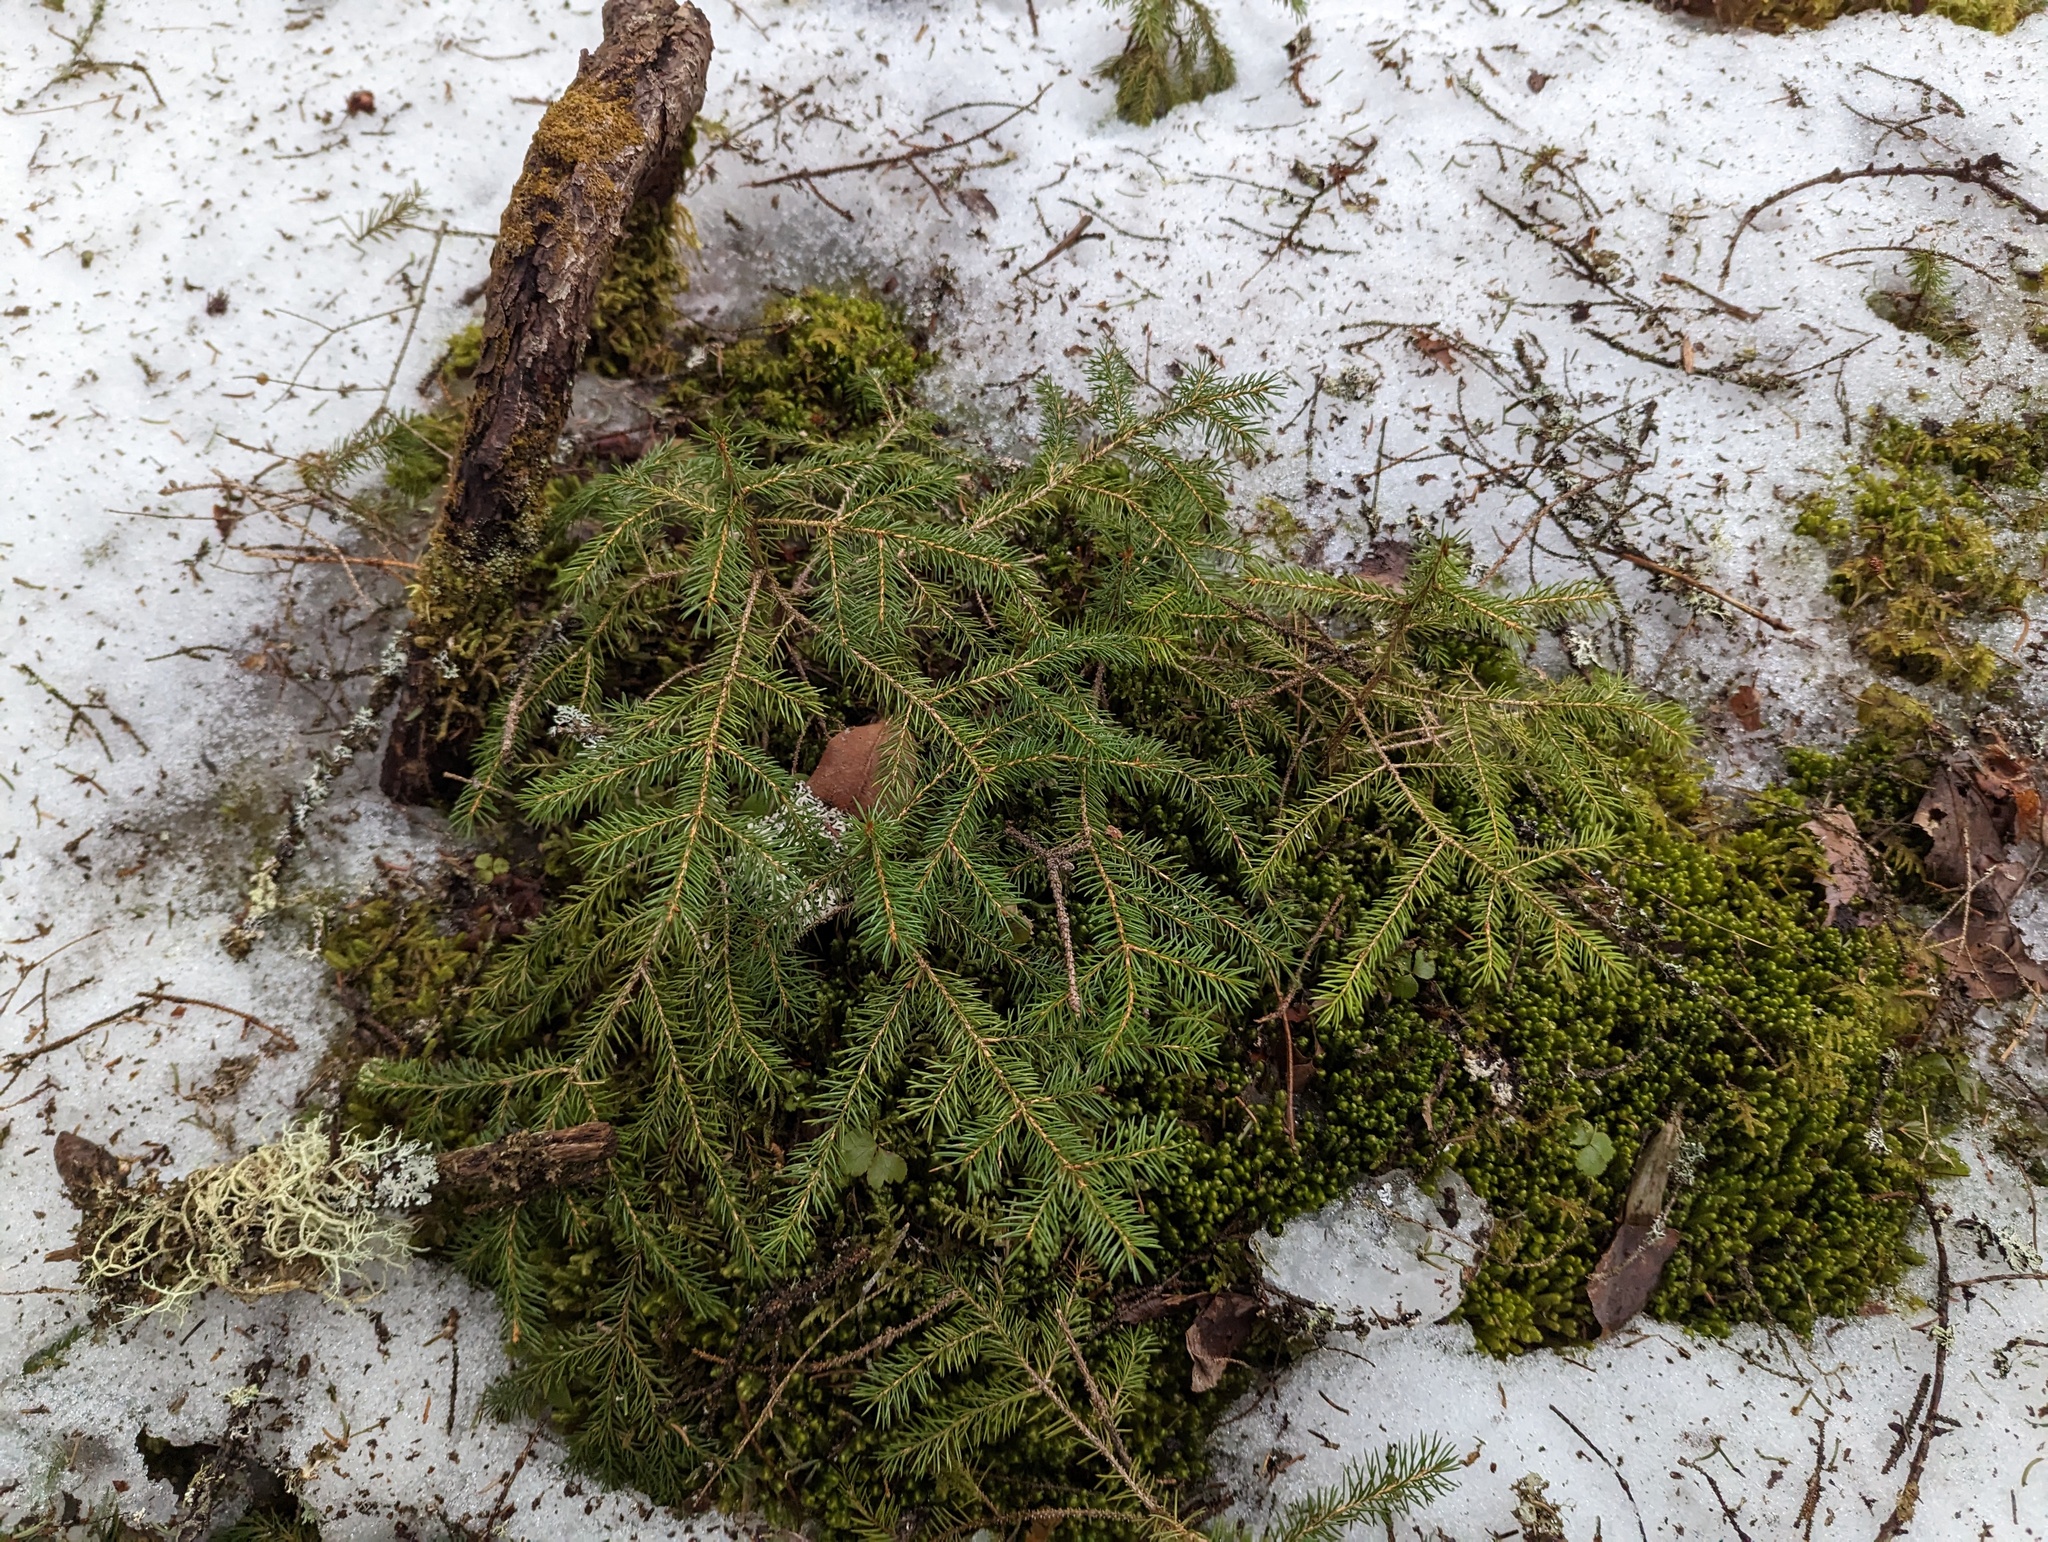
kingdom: Plantae
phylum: Tracheophyta
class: Pinopsida
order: Pinales
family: Pinaceae
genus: Picea
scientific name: Picea rubens
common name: Red spruce
